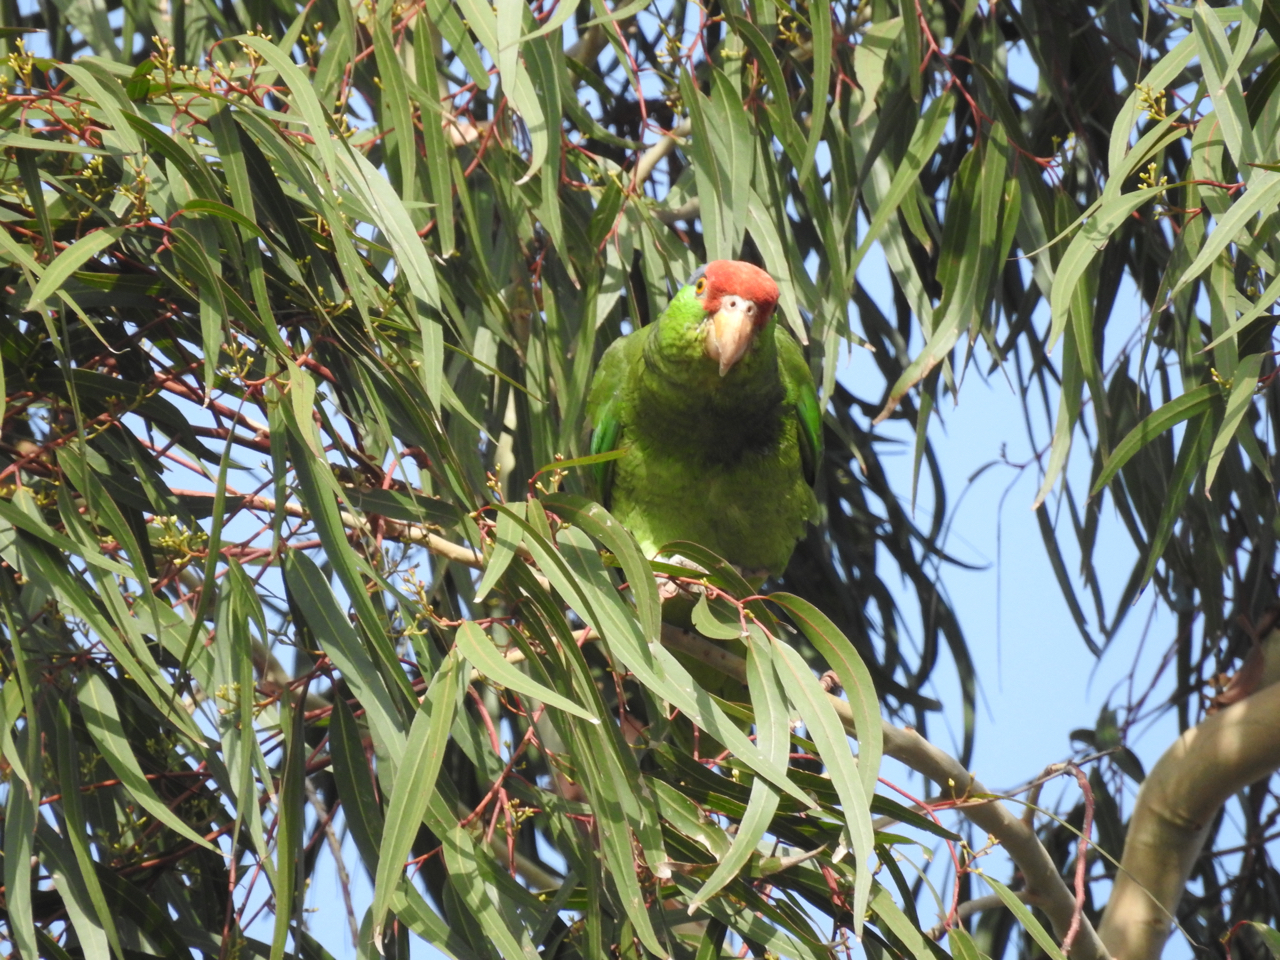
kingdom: Animalia
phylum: Chordata
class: Aves
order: Psittaciformes
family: Psittacidae
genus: Amazona
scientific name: Amazona viridigenalis
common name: Red-crowned amazon
